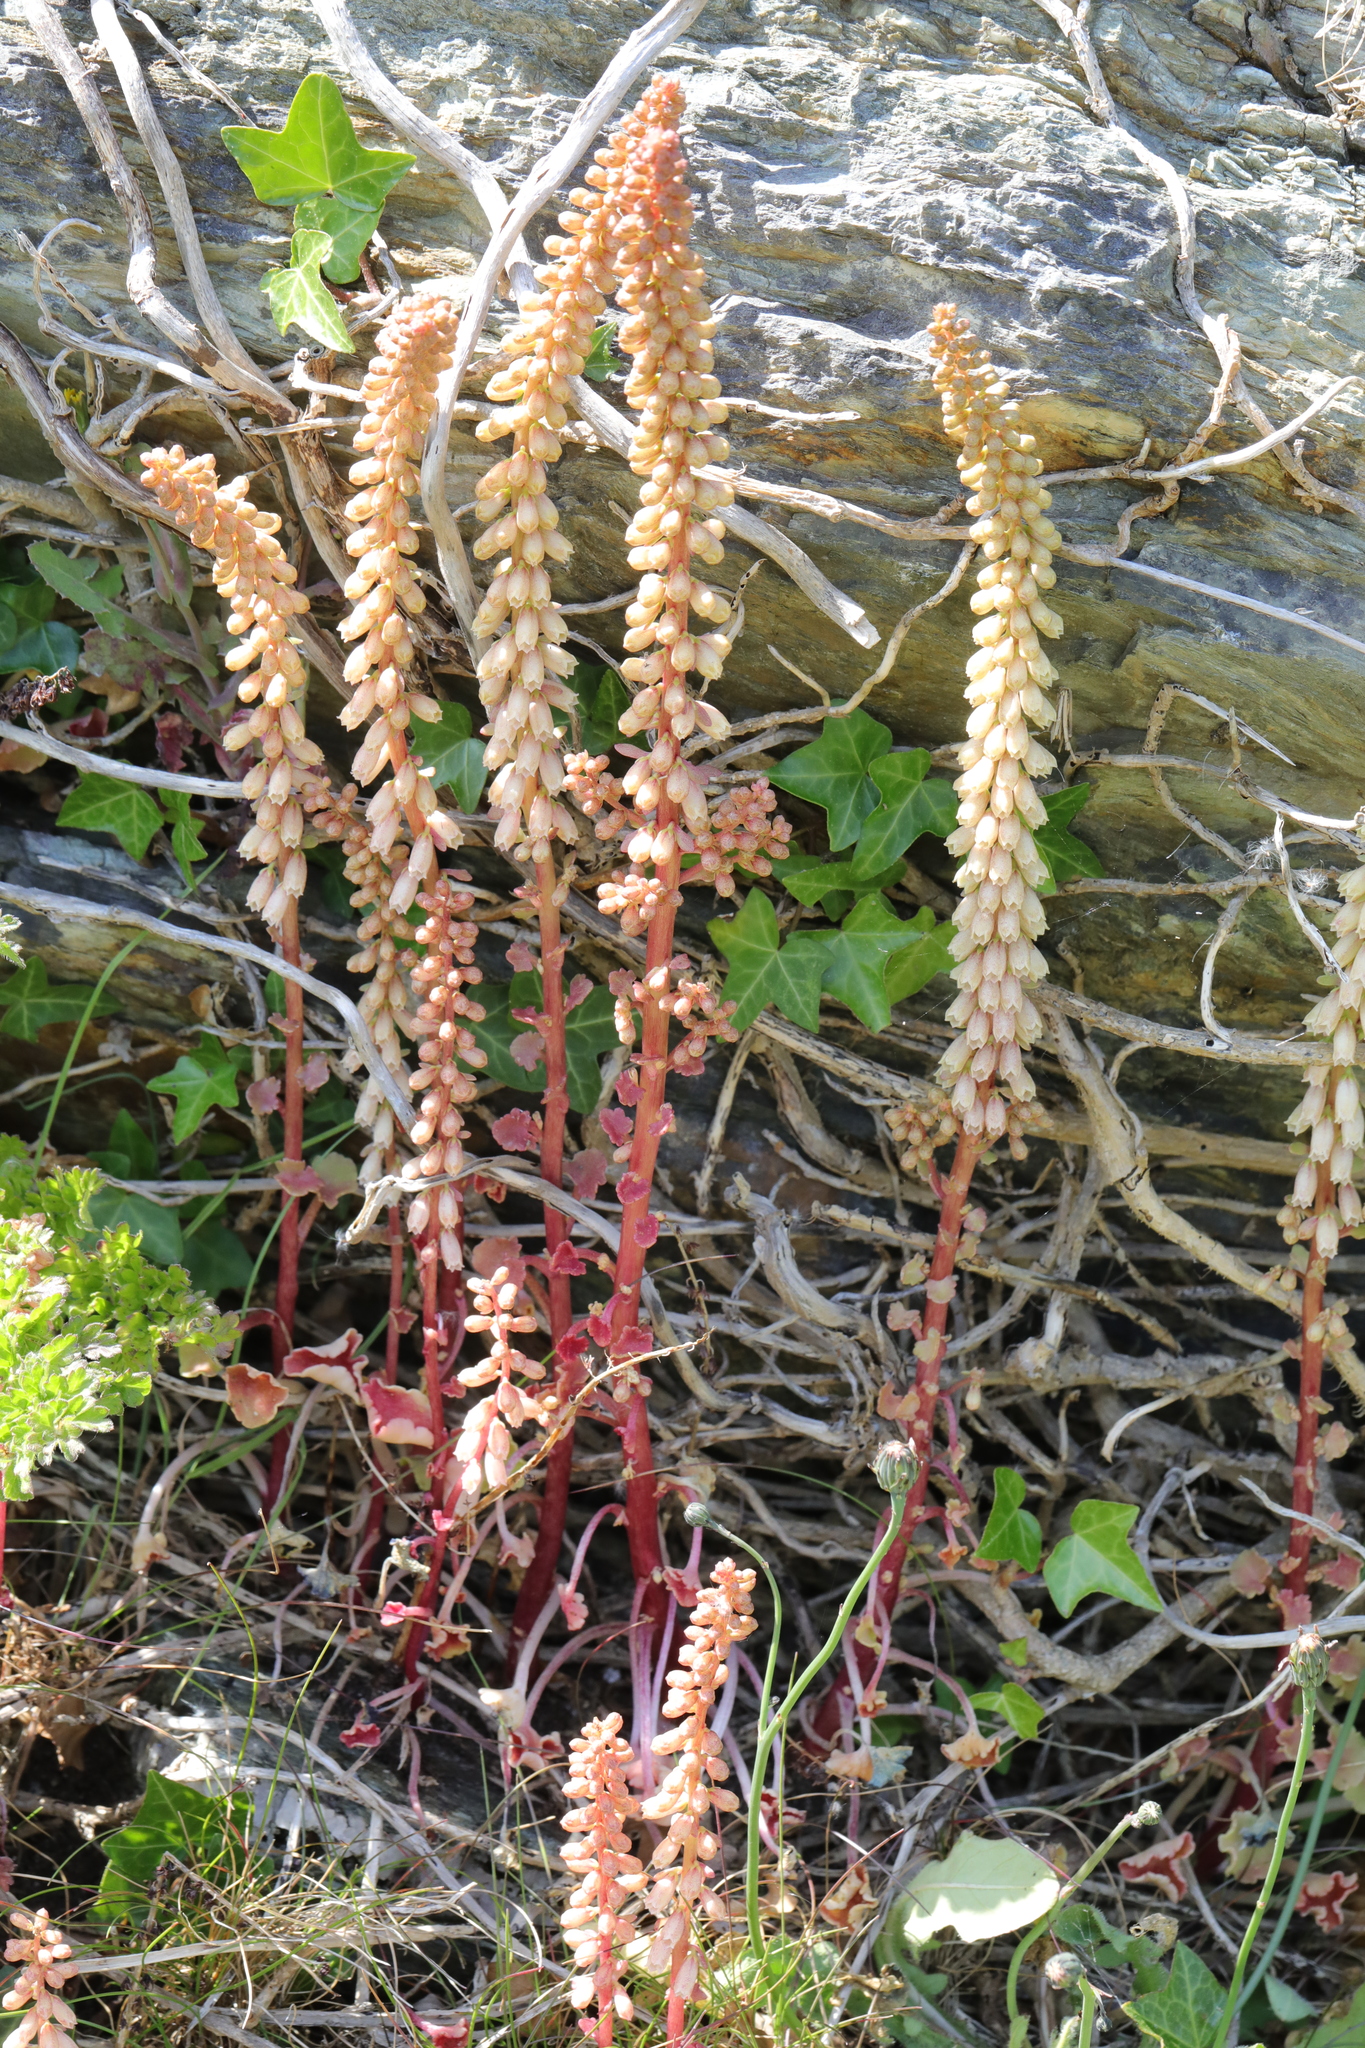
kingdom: Plantae
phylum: Tracheophyta
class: Magnoliopsida
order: Saxifragales
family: Crassulaceae
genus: Umbilicus
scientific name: Umbilicus rupestris
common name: Navelwort
